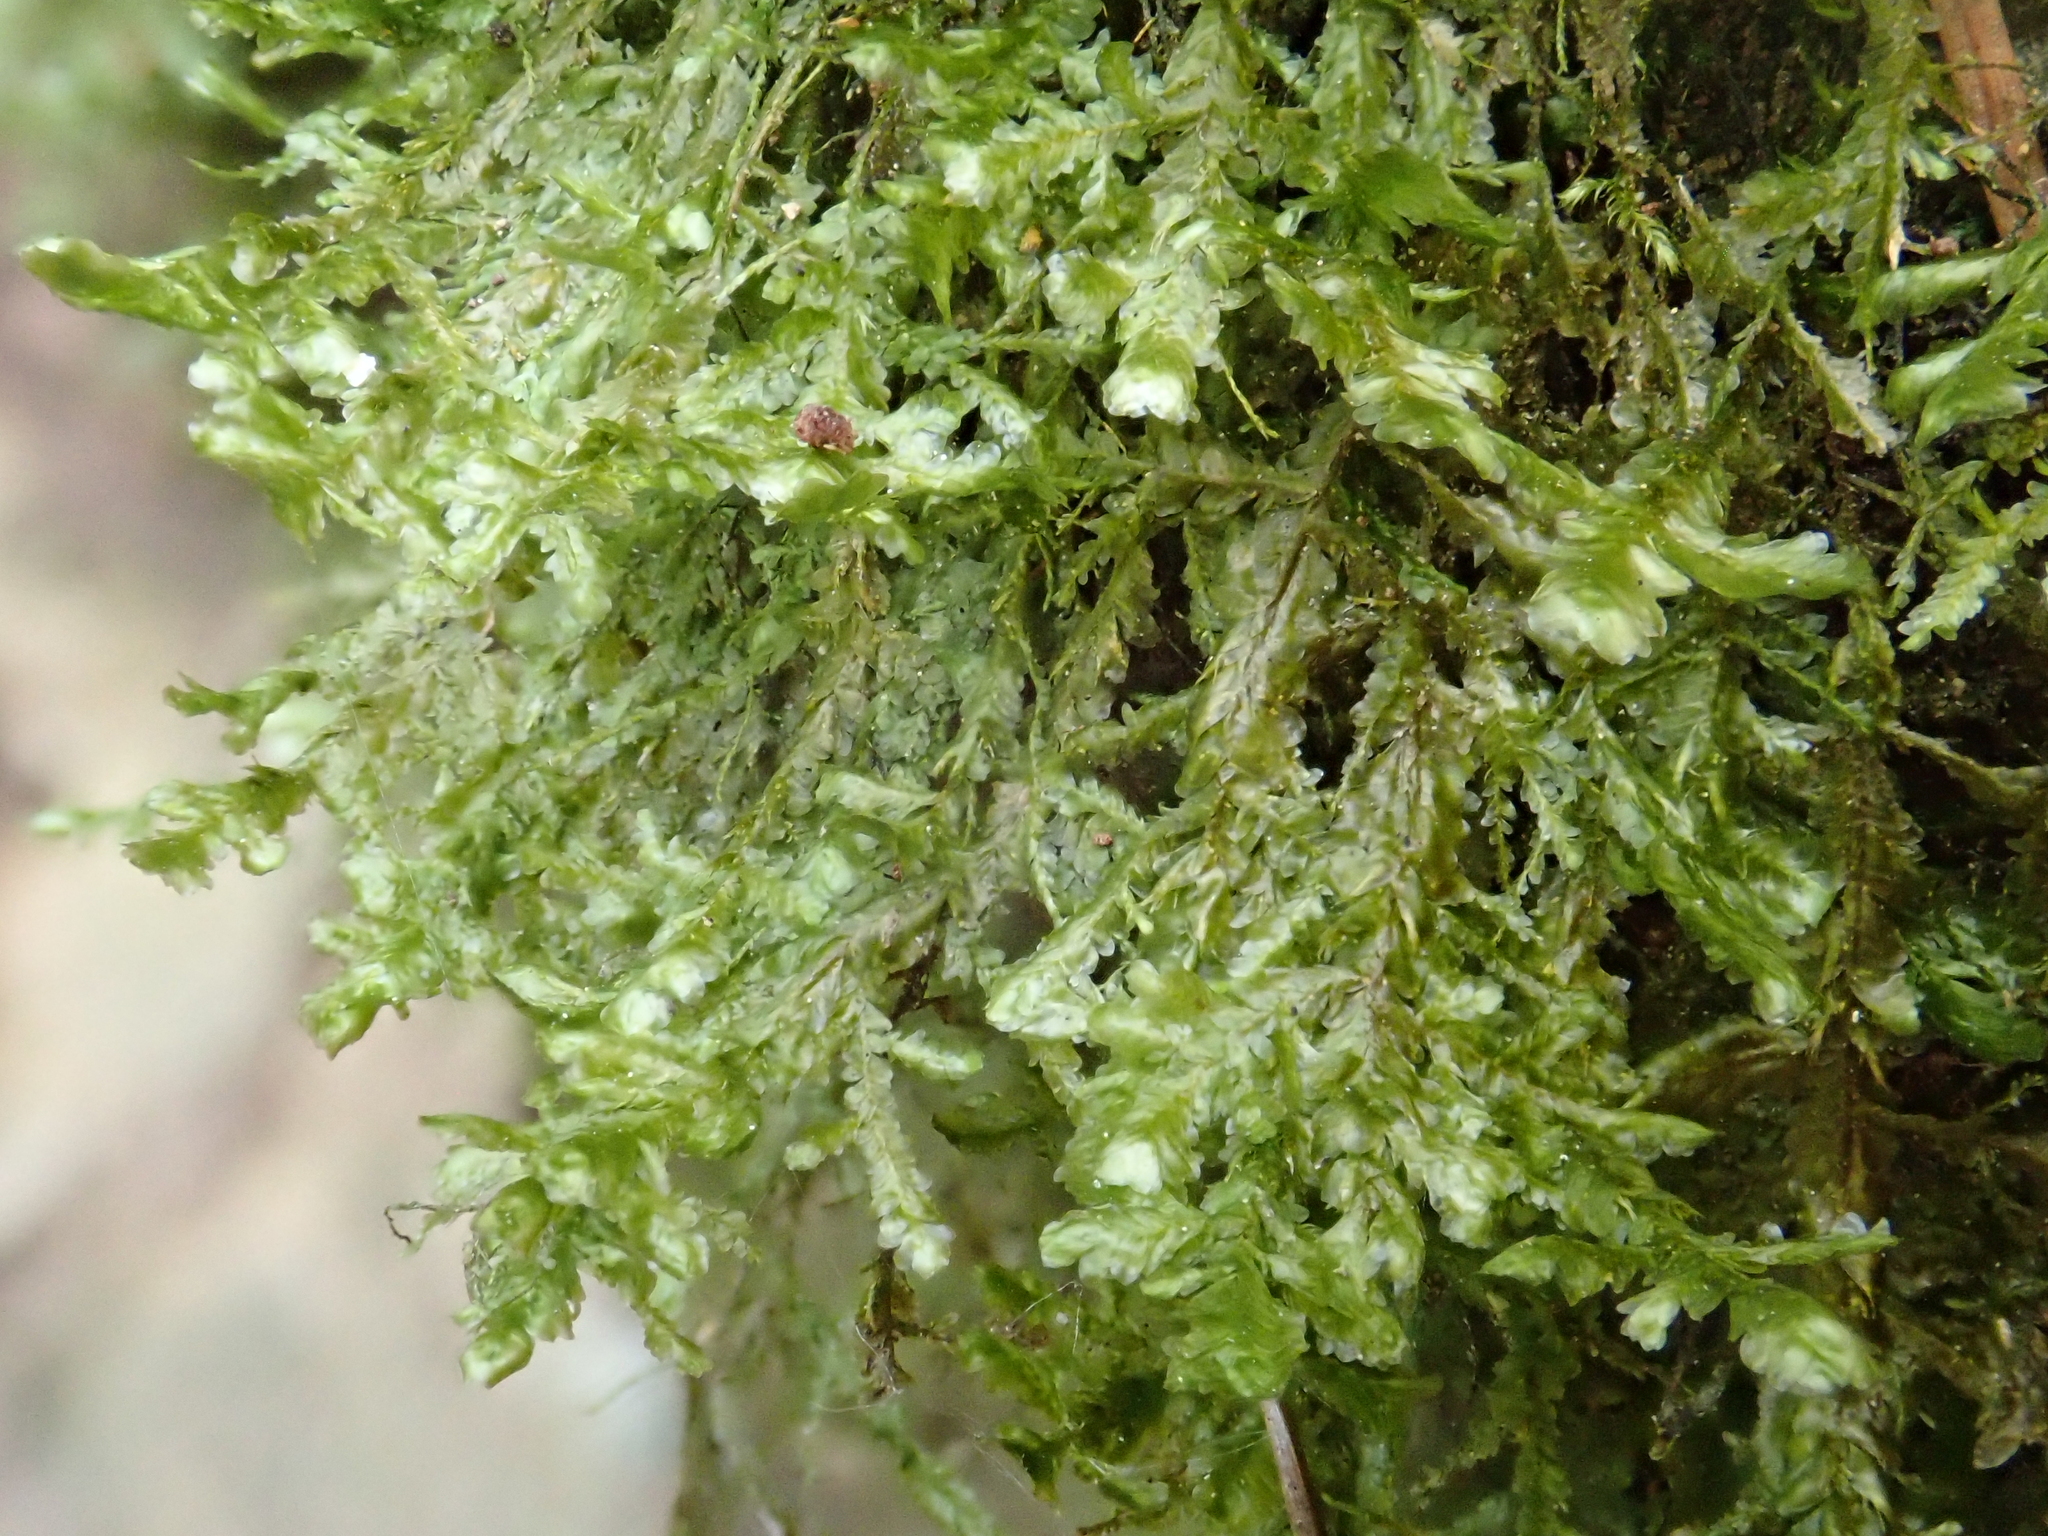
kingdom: Plantae
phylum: Bryophyta
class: Bryopsida
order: Hypnales
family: Neckeraceae
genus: Alleniella
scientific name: Alleniella besseri
